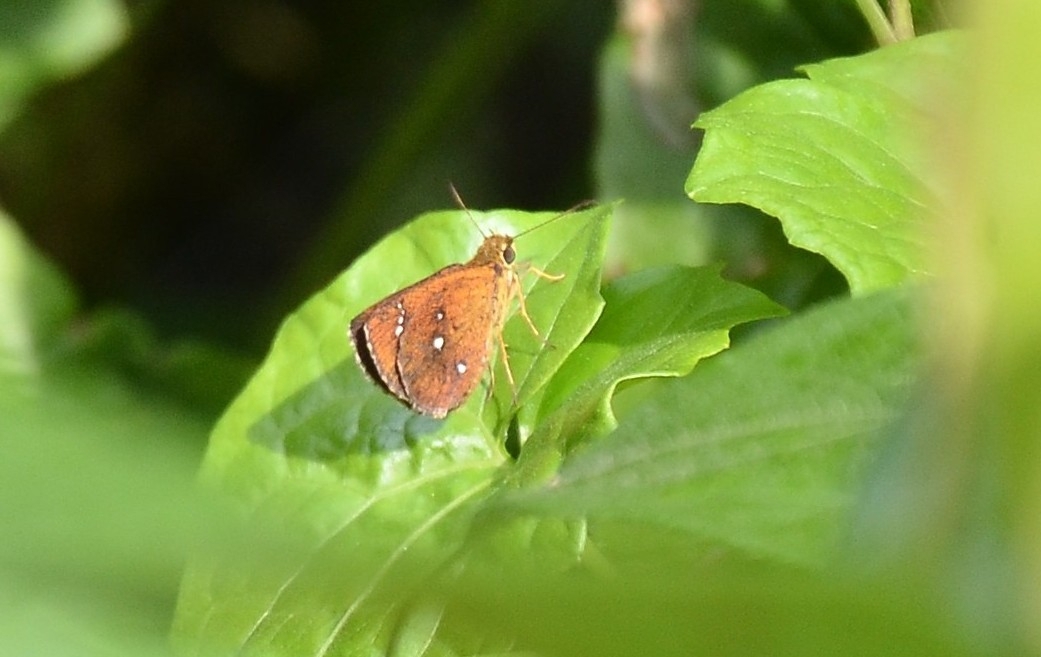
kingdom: Animalia
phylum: Arthropoda
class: Insecta
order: Lepidoptera
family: Hesperiidae
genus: Iambrix
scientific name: Iambrix salsala
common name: Chestnut bob
